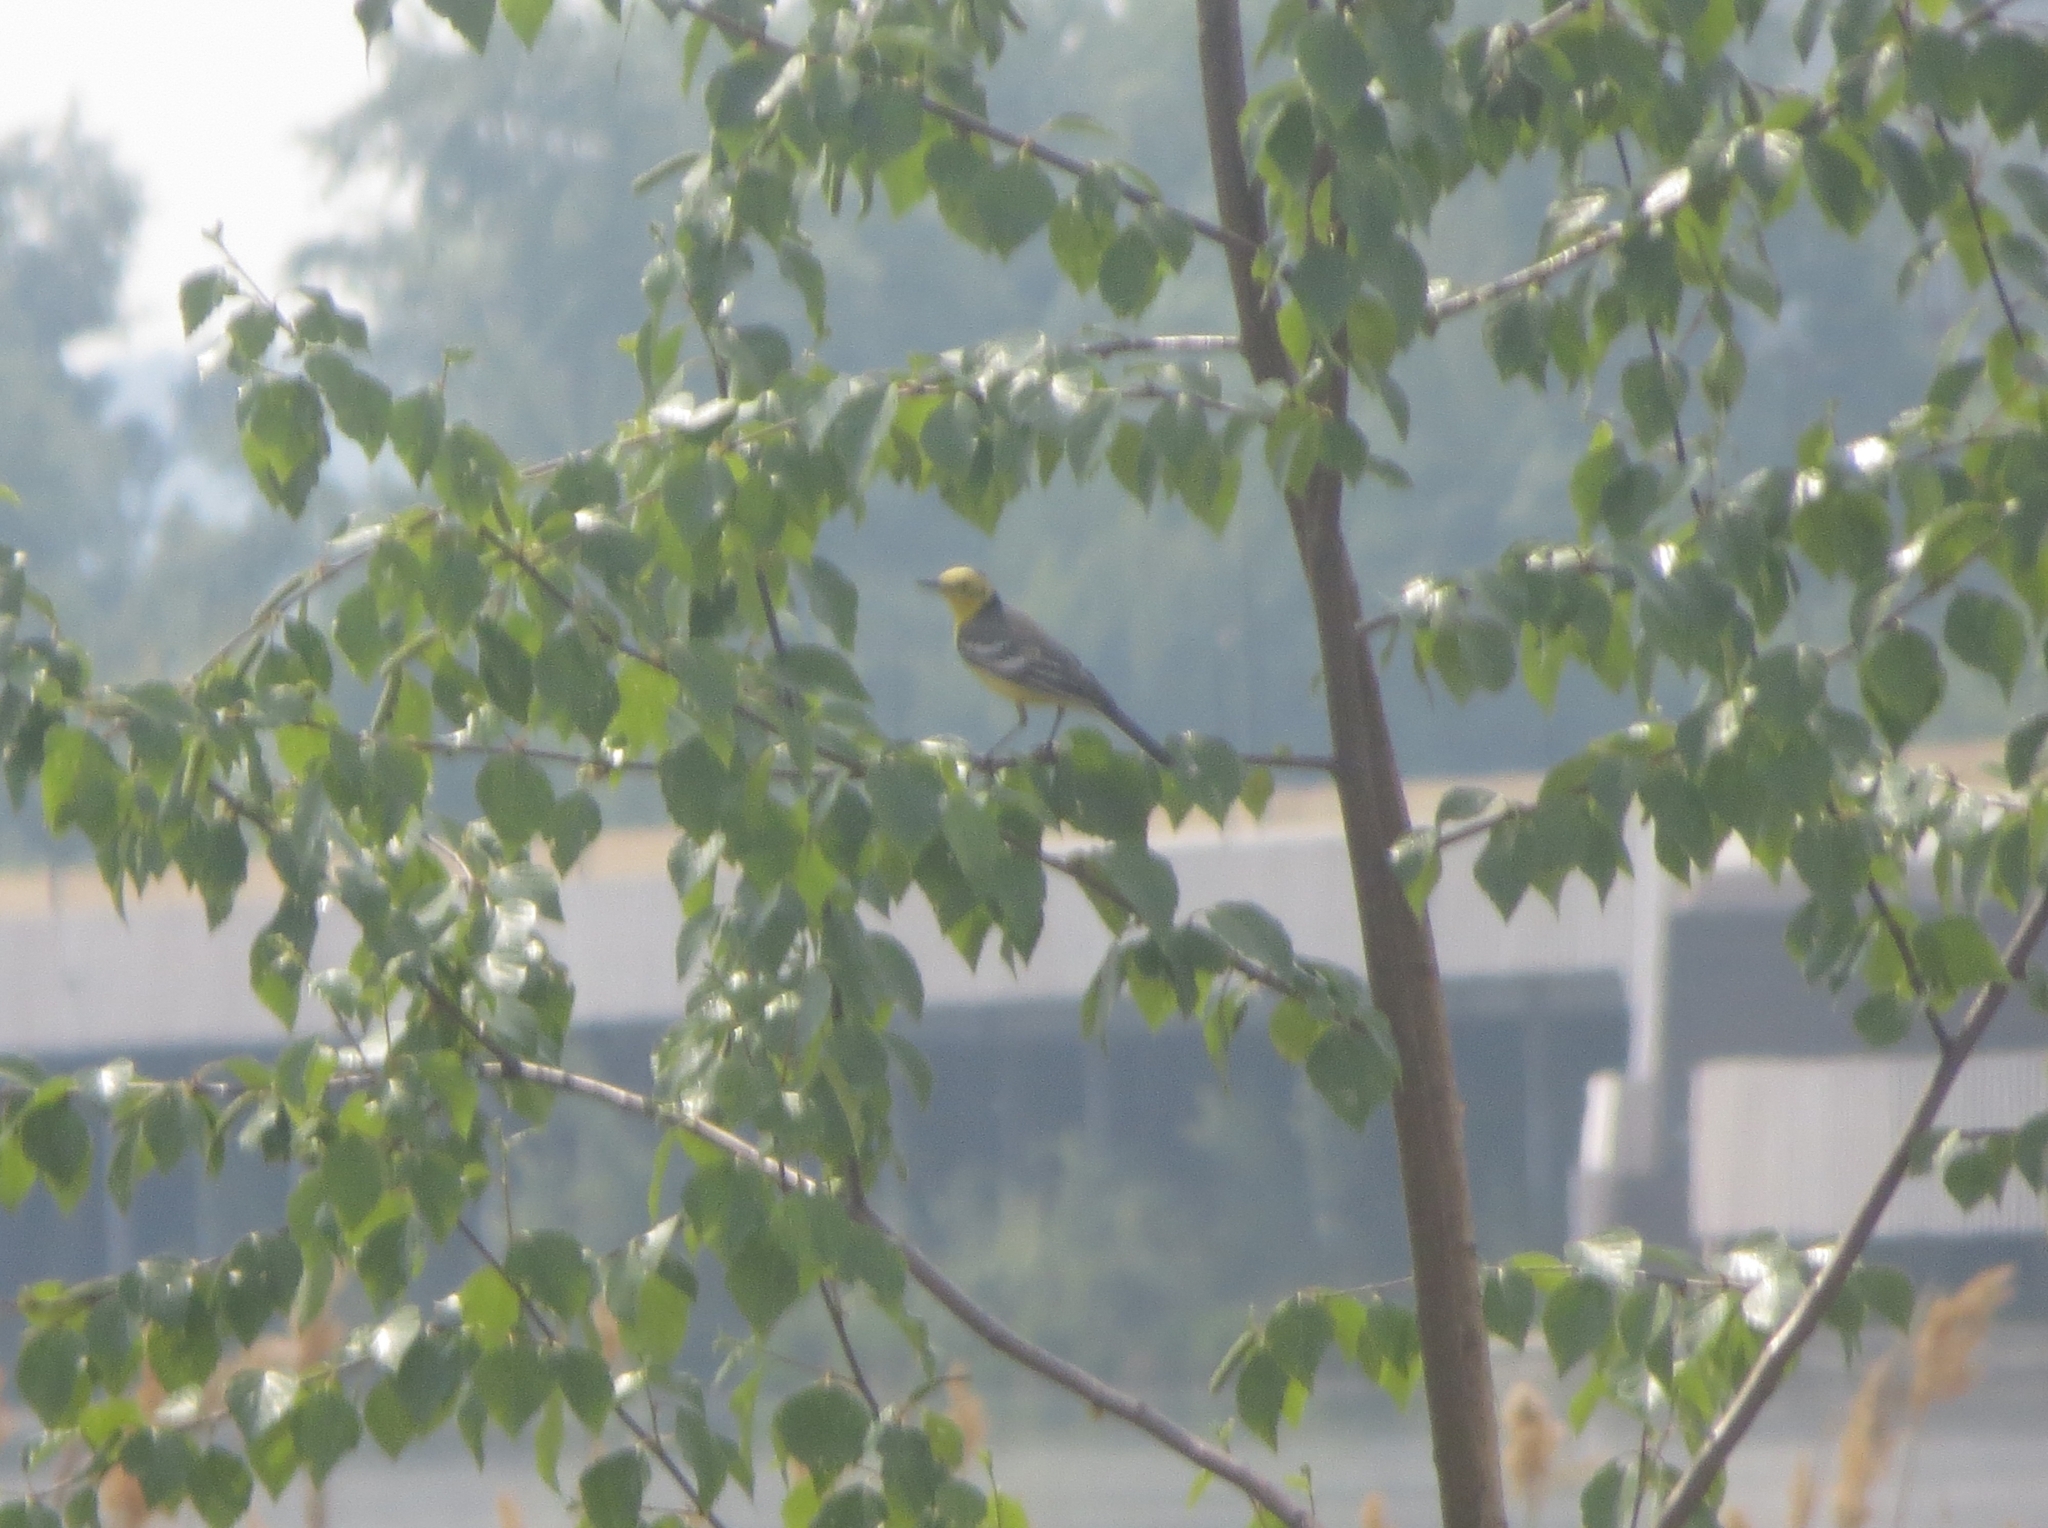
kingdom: Animalia
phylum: Chordata
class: Aves
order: Passeriformes
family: Motacillidae
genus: Motacilla
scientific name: Motacilla citreola
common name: Citrine wagtail
